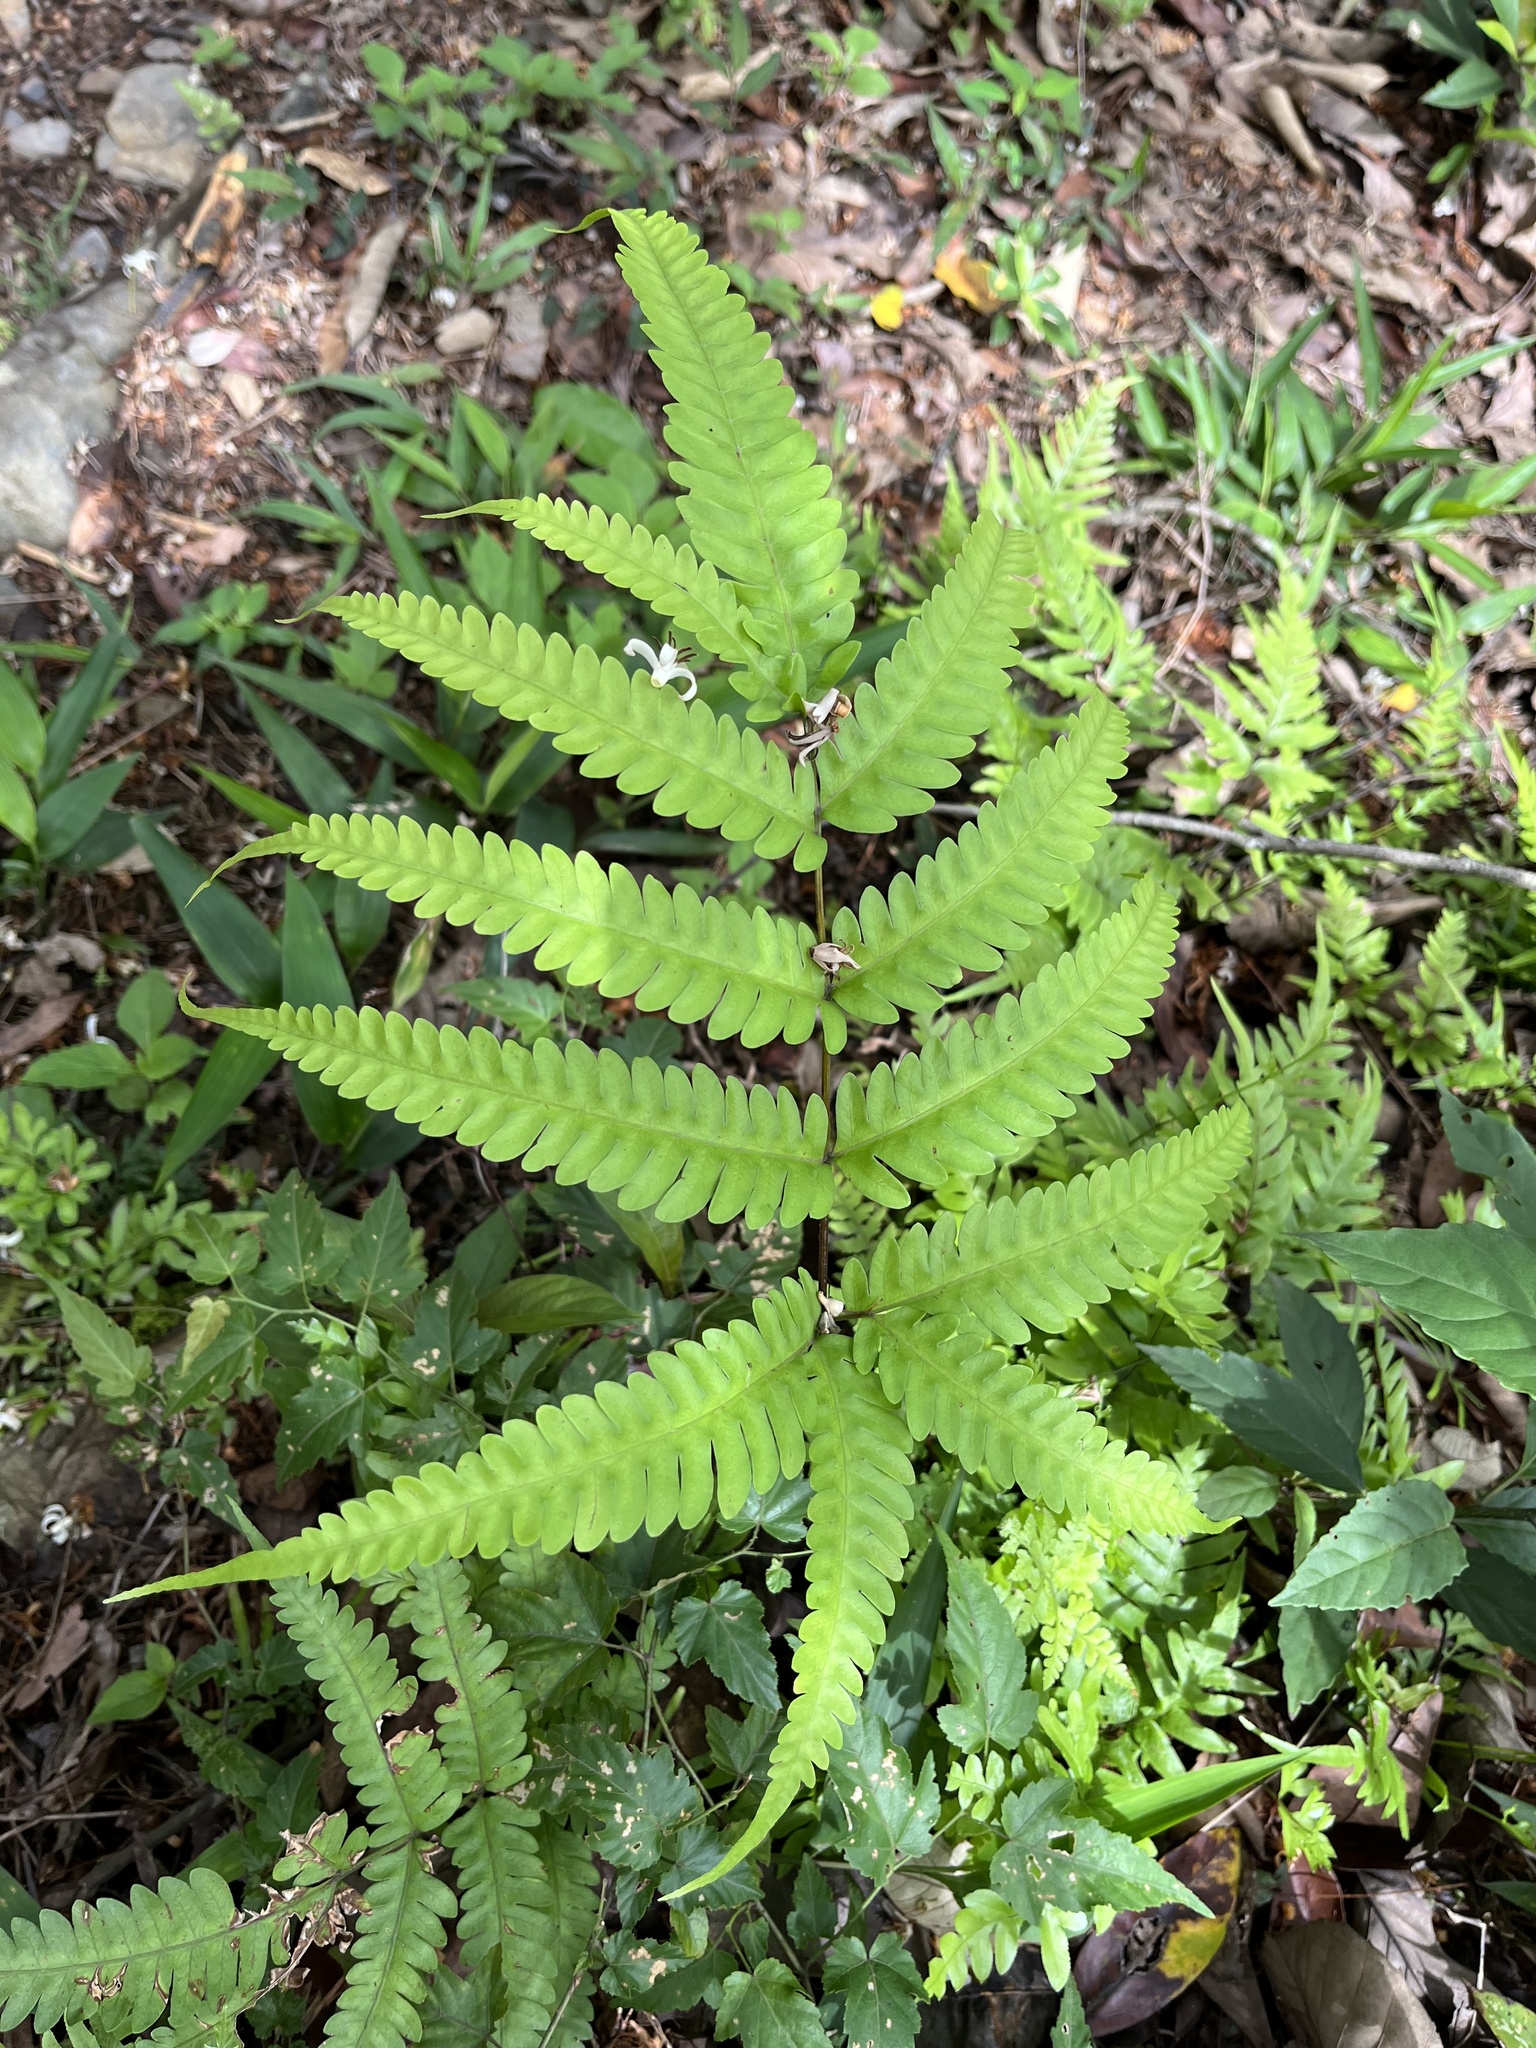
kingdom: Plantae
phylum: Tracheophyta
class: Polypodiopsida
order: Polypodiales
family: Pteridaceae
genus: Pteris
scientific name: Pteris biaurita
